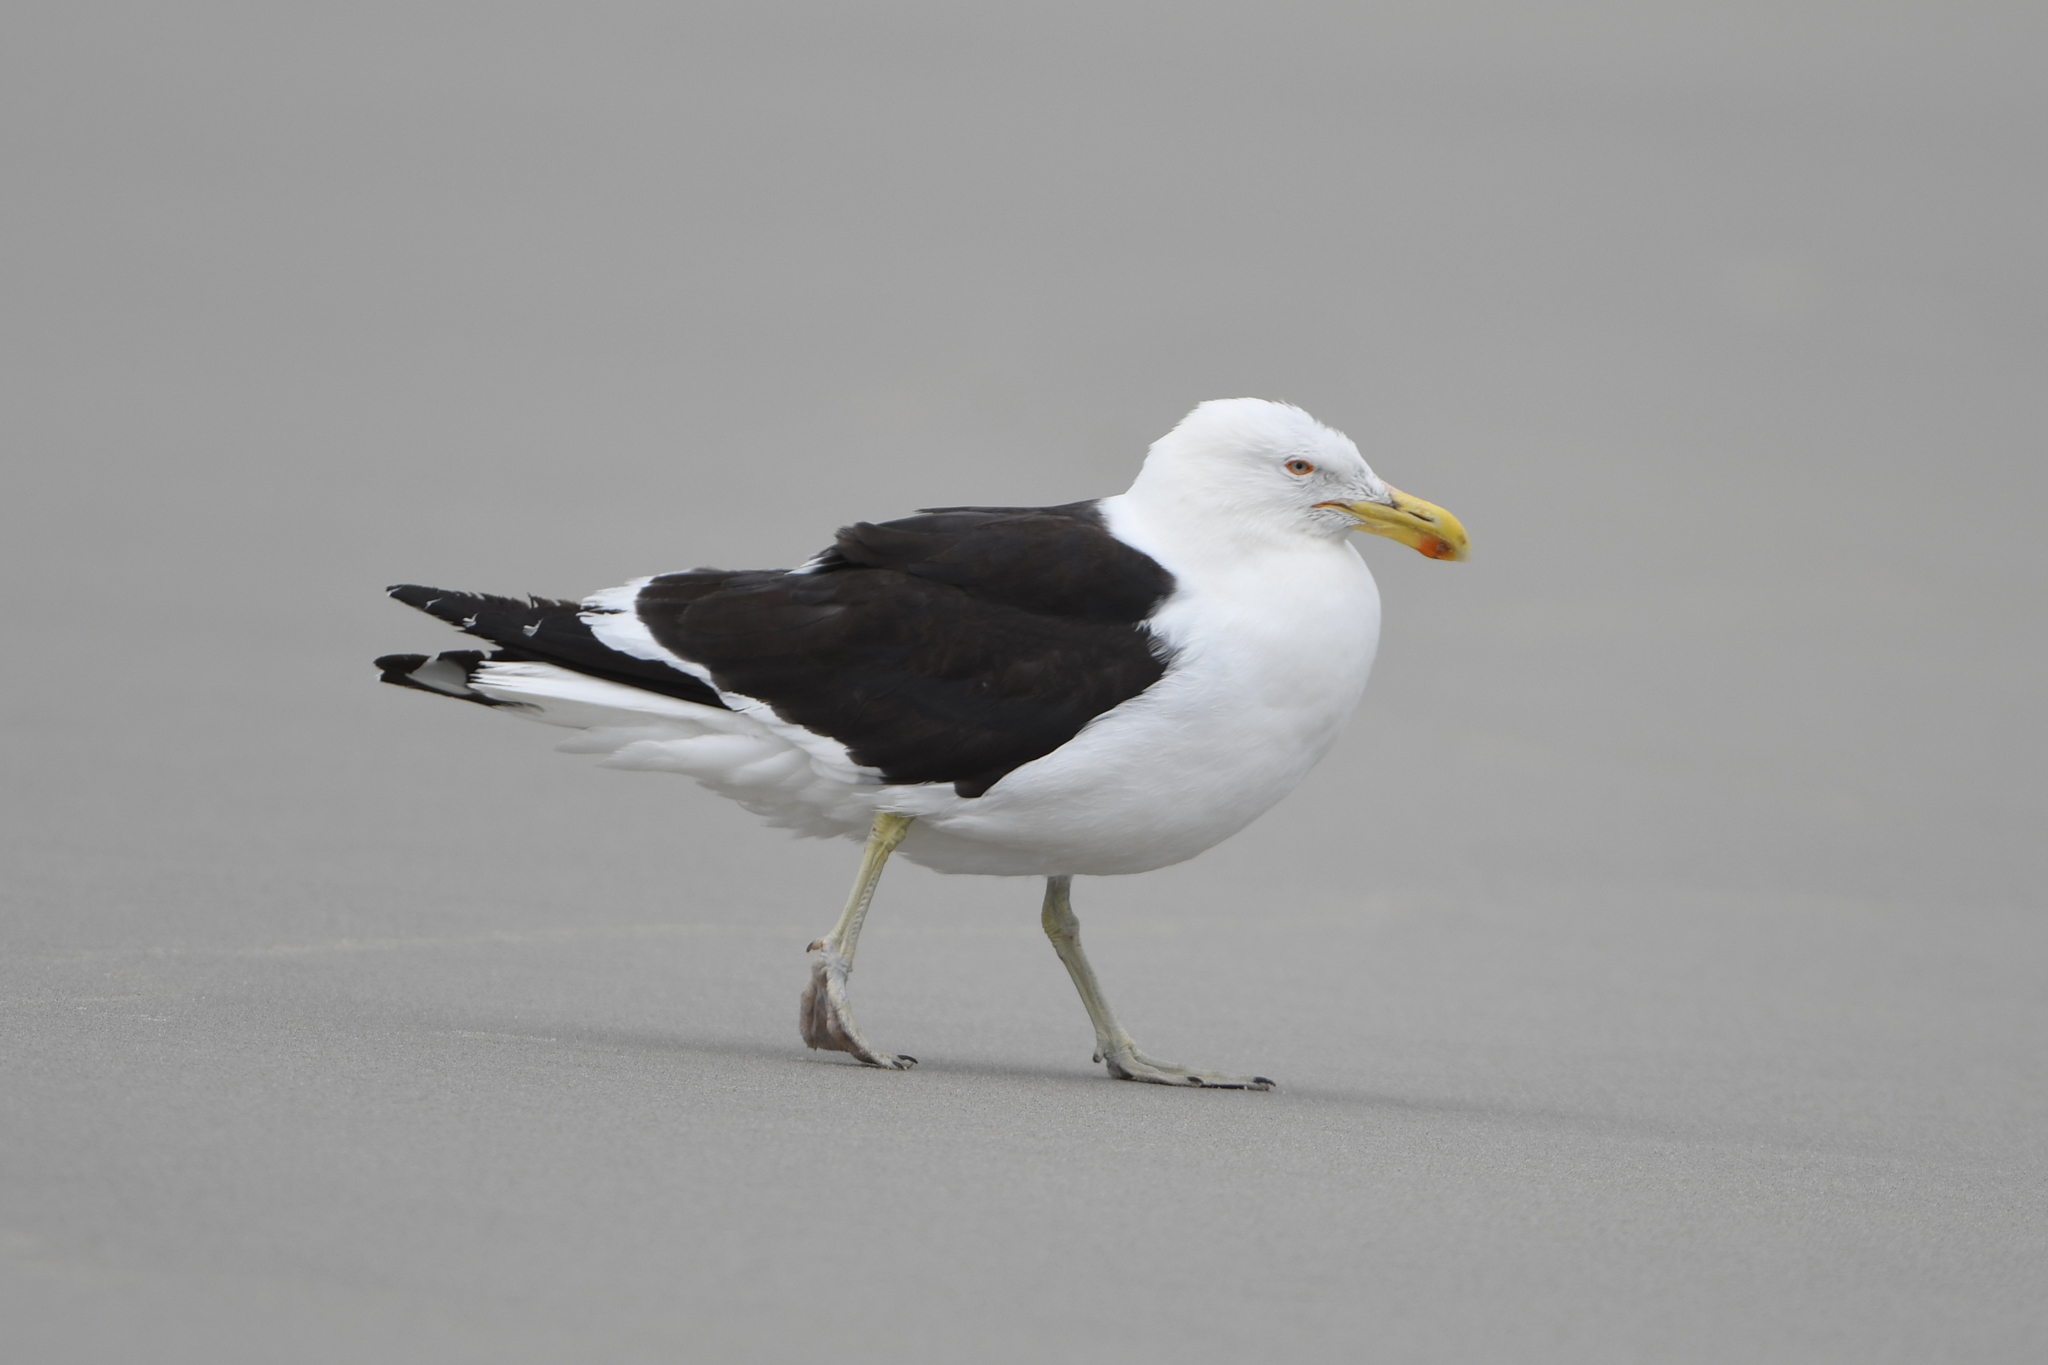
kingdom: Animalia
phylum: Chordata
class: Aves
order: Charadriiformes
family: Laridae
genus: Larus
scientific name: Larus dominicanus
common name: Kelp gull
